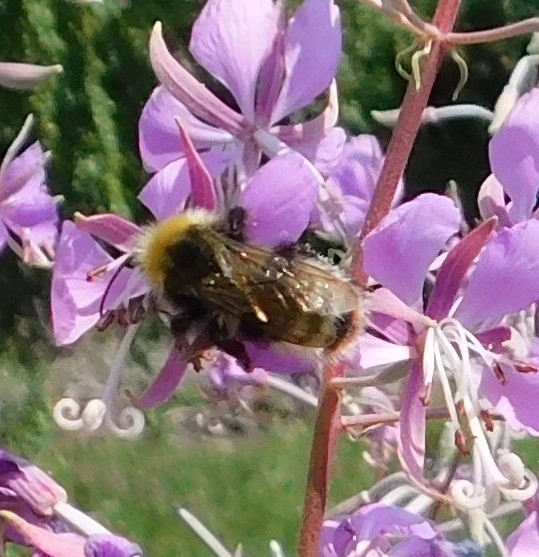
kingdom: Animalia
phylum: Arthropoda
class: Insecta
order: Hymenoptera
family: Apidae
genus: Bombus
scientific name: Bombus
